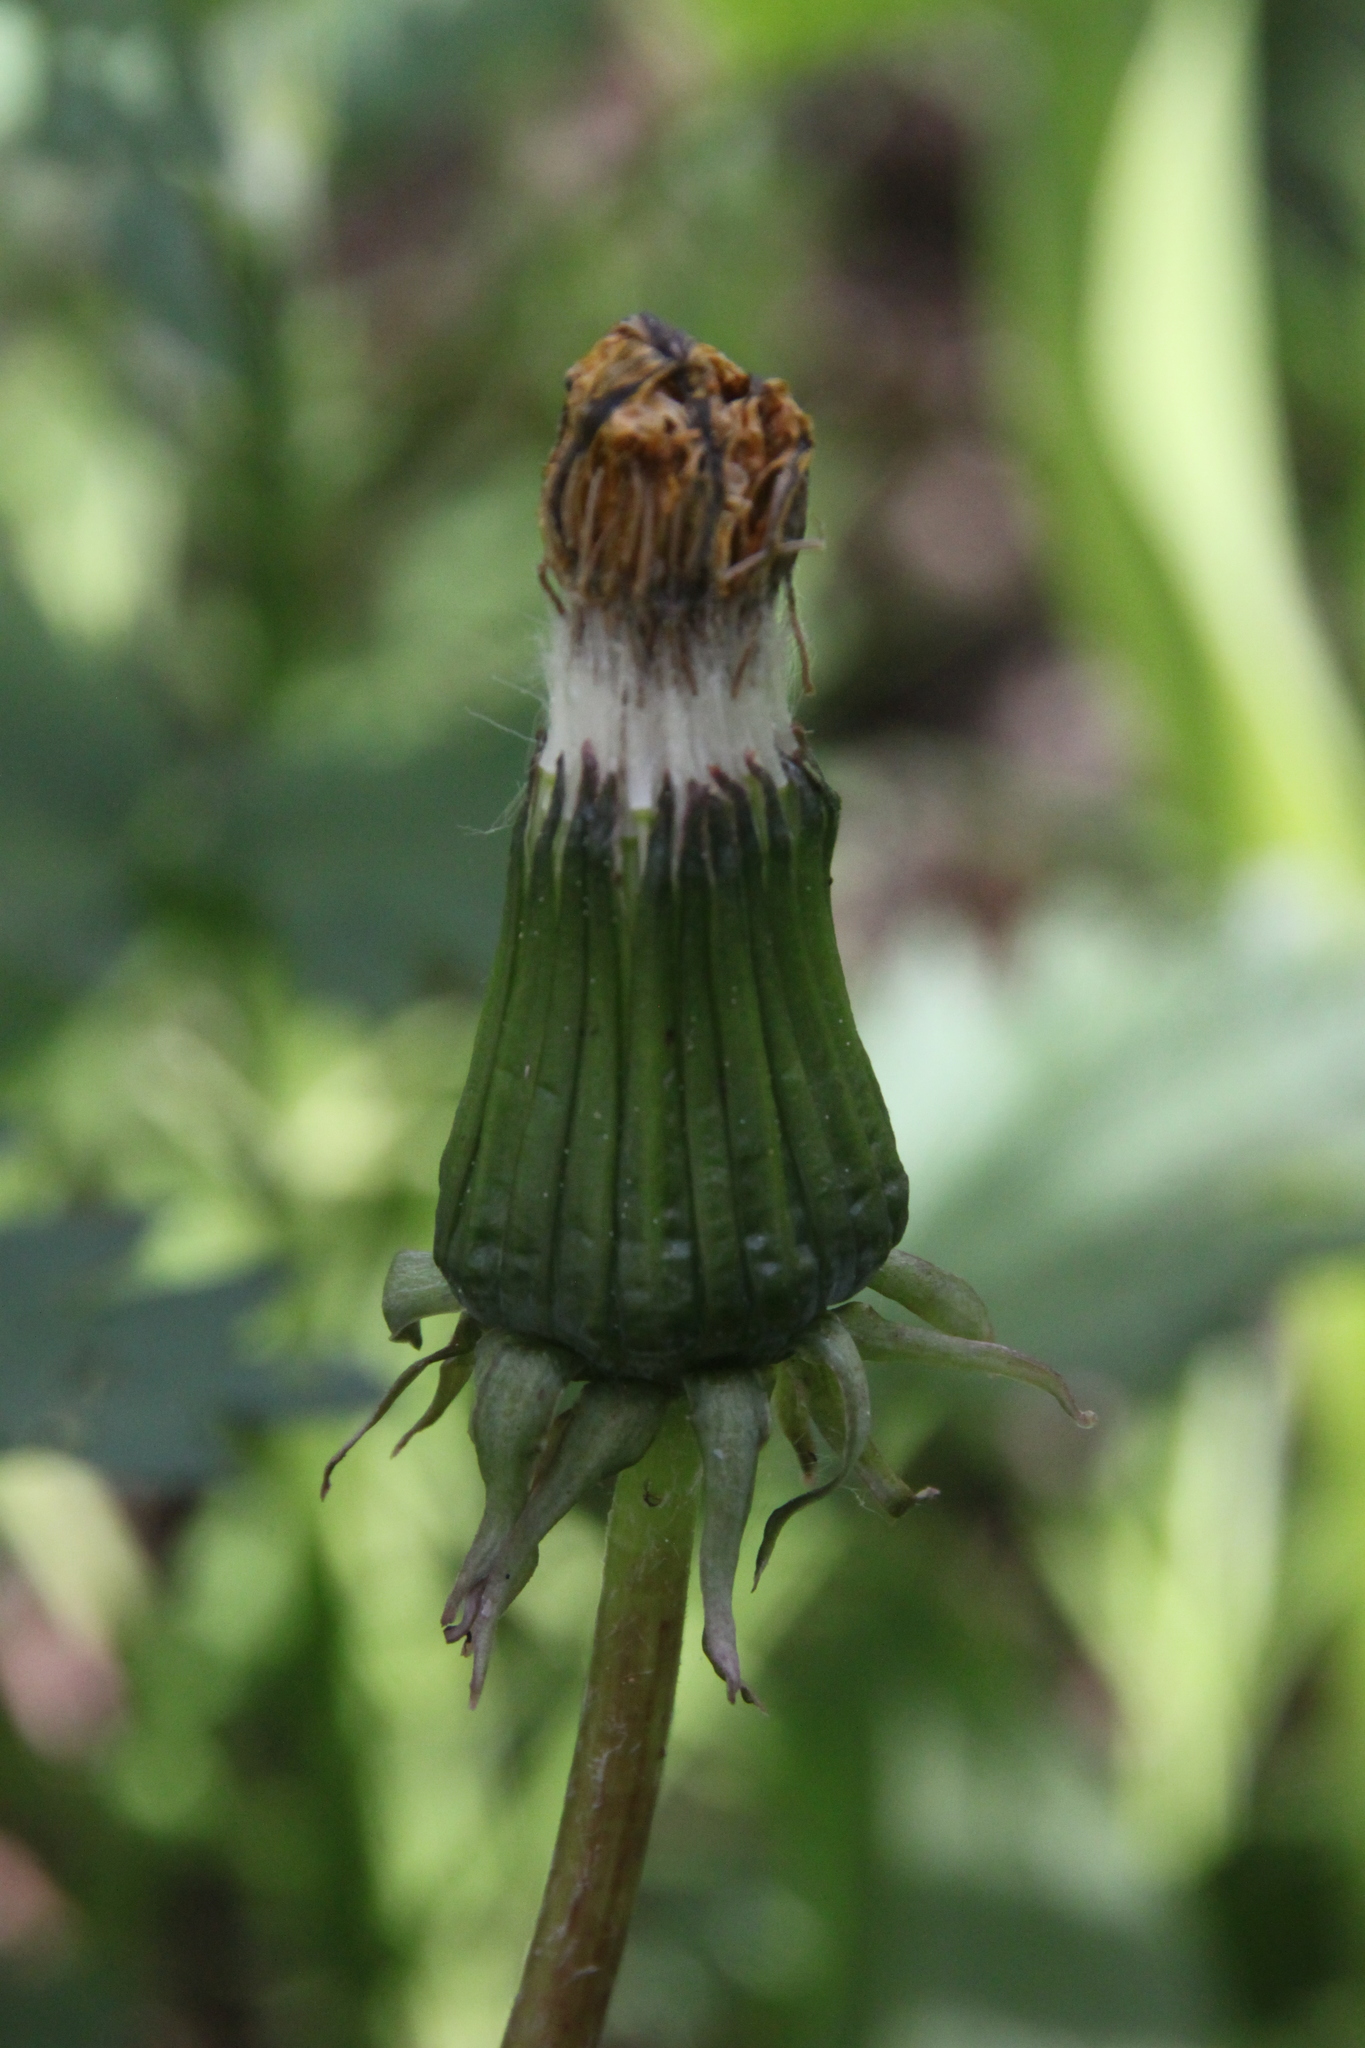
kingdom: Plantae
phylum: Tracheophyta
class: Magnoliopsida
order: Asterales
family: Asteraceae
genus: Taraxacum
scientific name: Taraxacum officinale
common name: Common dandelion
